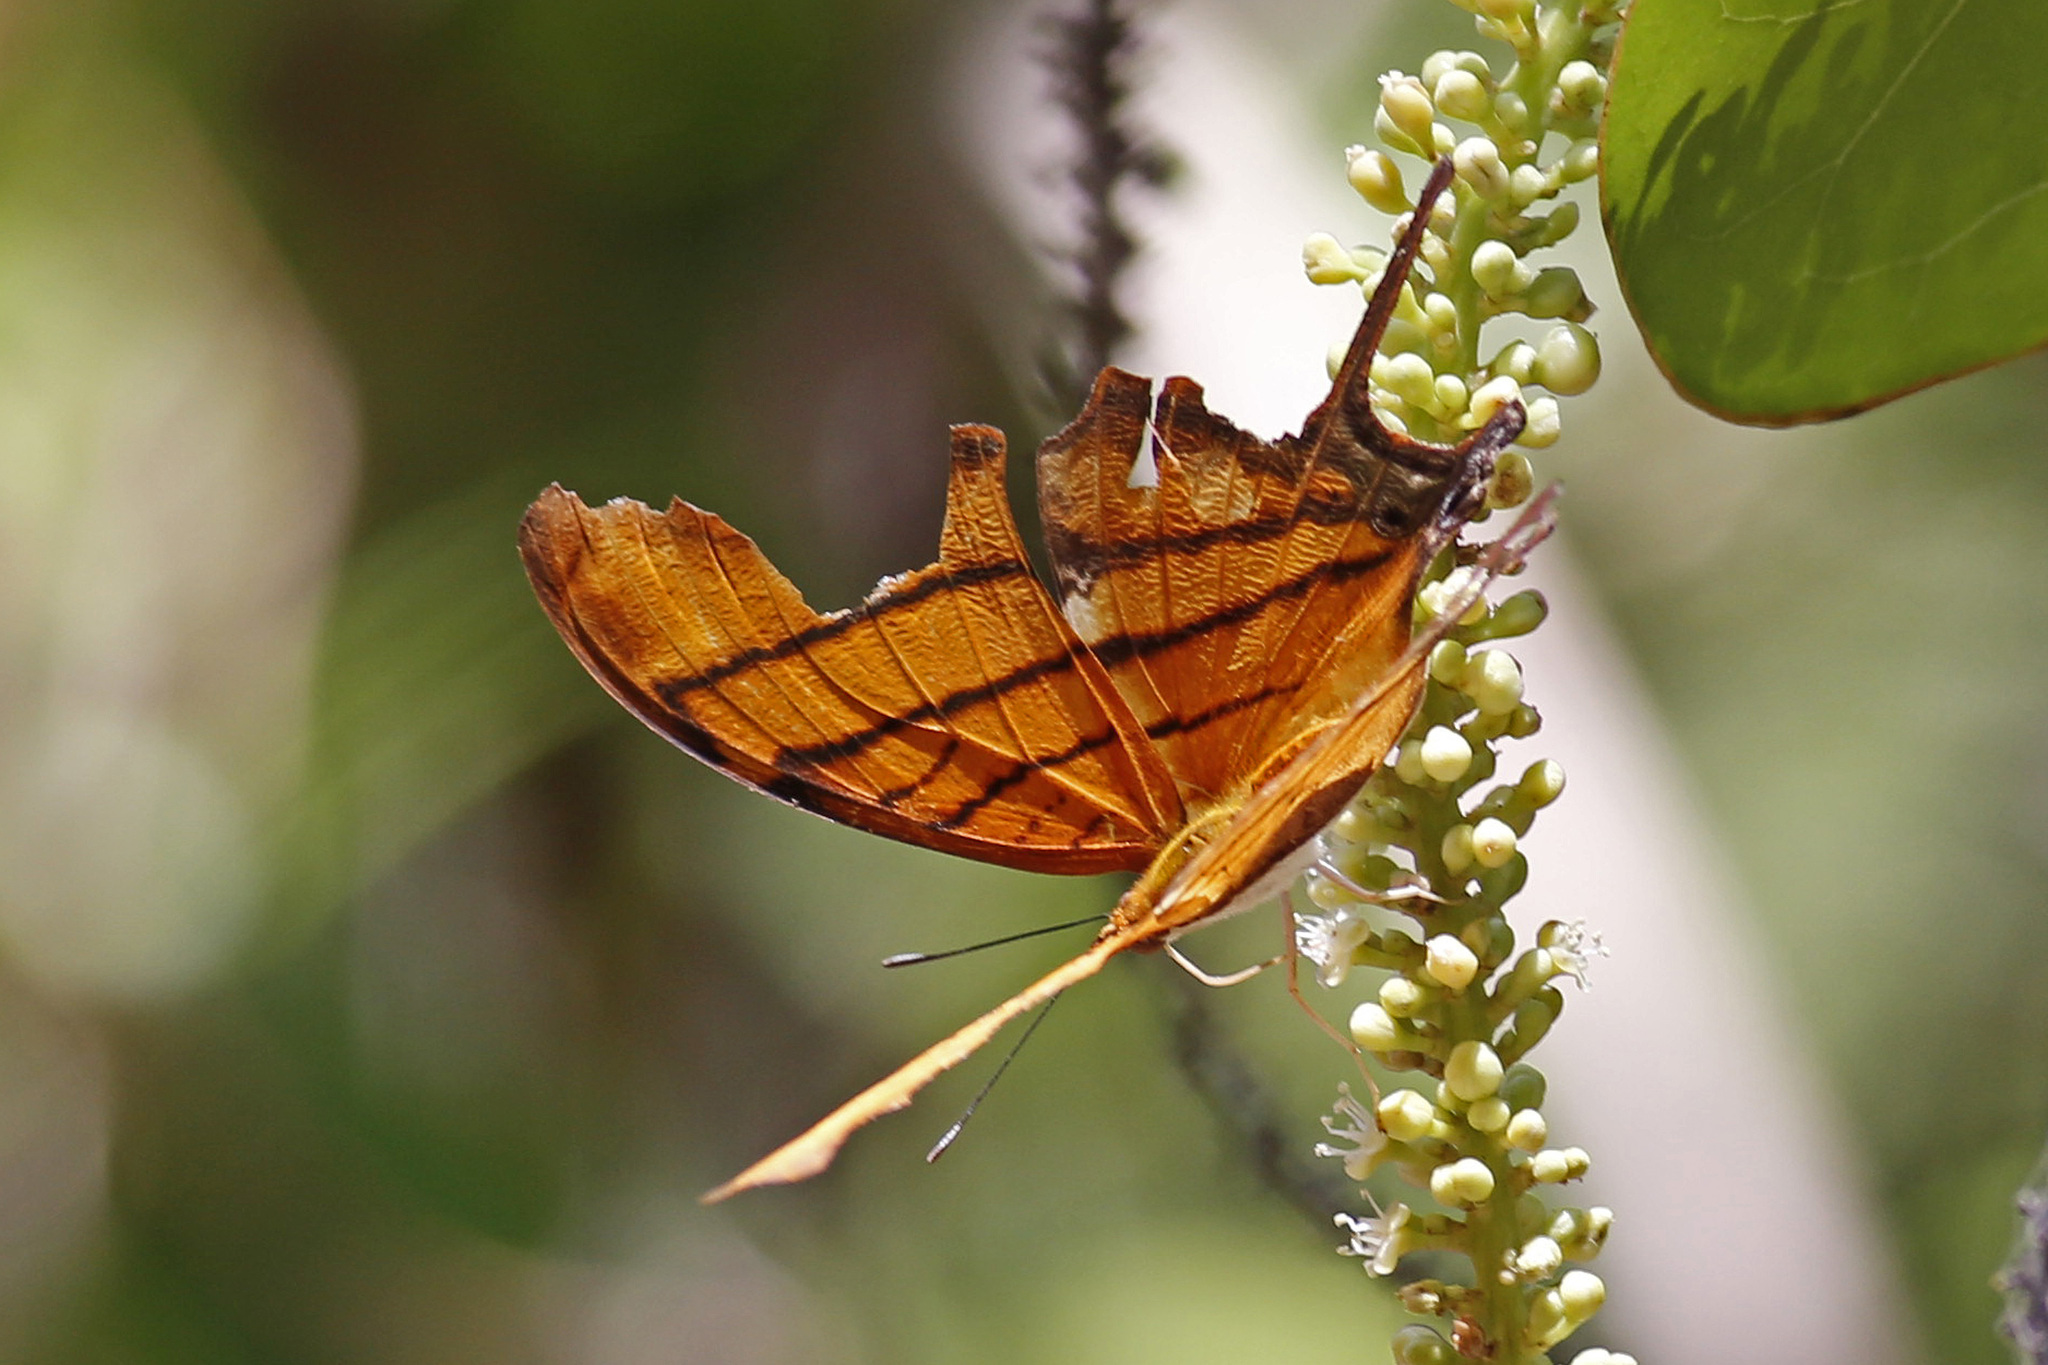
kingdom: Animalia
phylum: Arthropoda
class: Insecta
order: Lepidoptera
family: Nymphalidae
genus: Marpesia
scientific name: Marpesia petreus
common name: Red dagger wing
